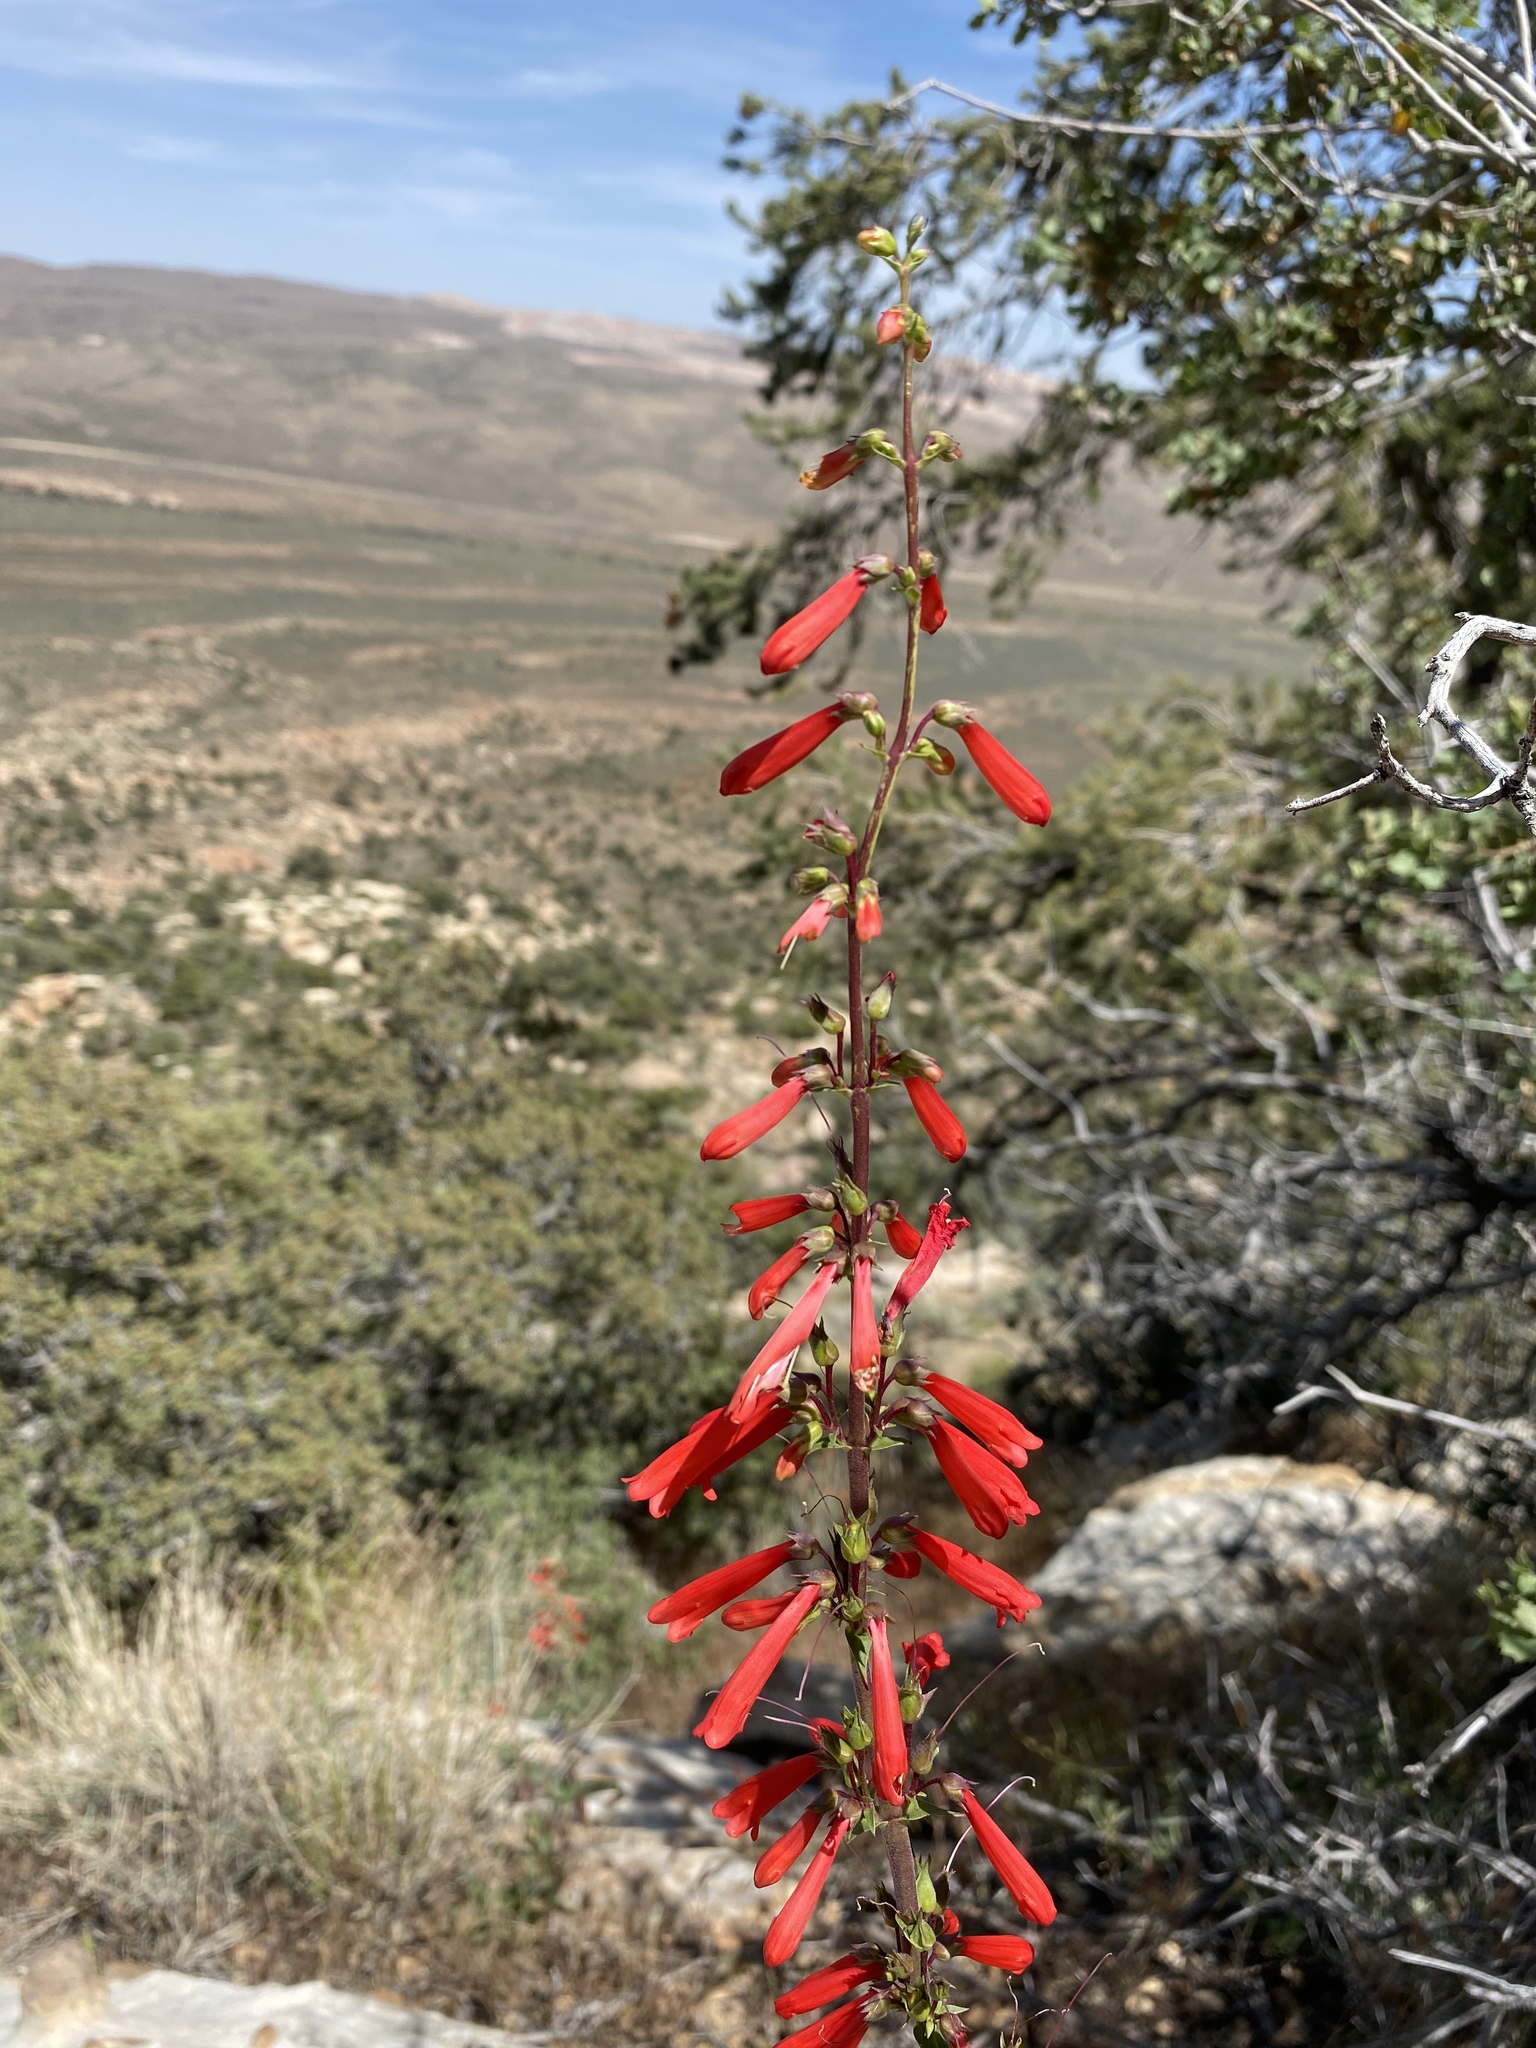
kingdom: Plantae
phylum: Tracheophyta
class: Magnoliopsida
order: Lamiales
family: Plantaginaceae
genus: Penstemon
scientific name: Penstemon eatonii
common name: Eaton's penstemon
